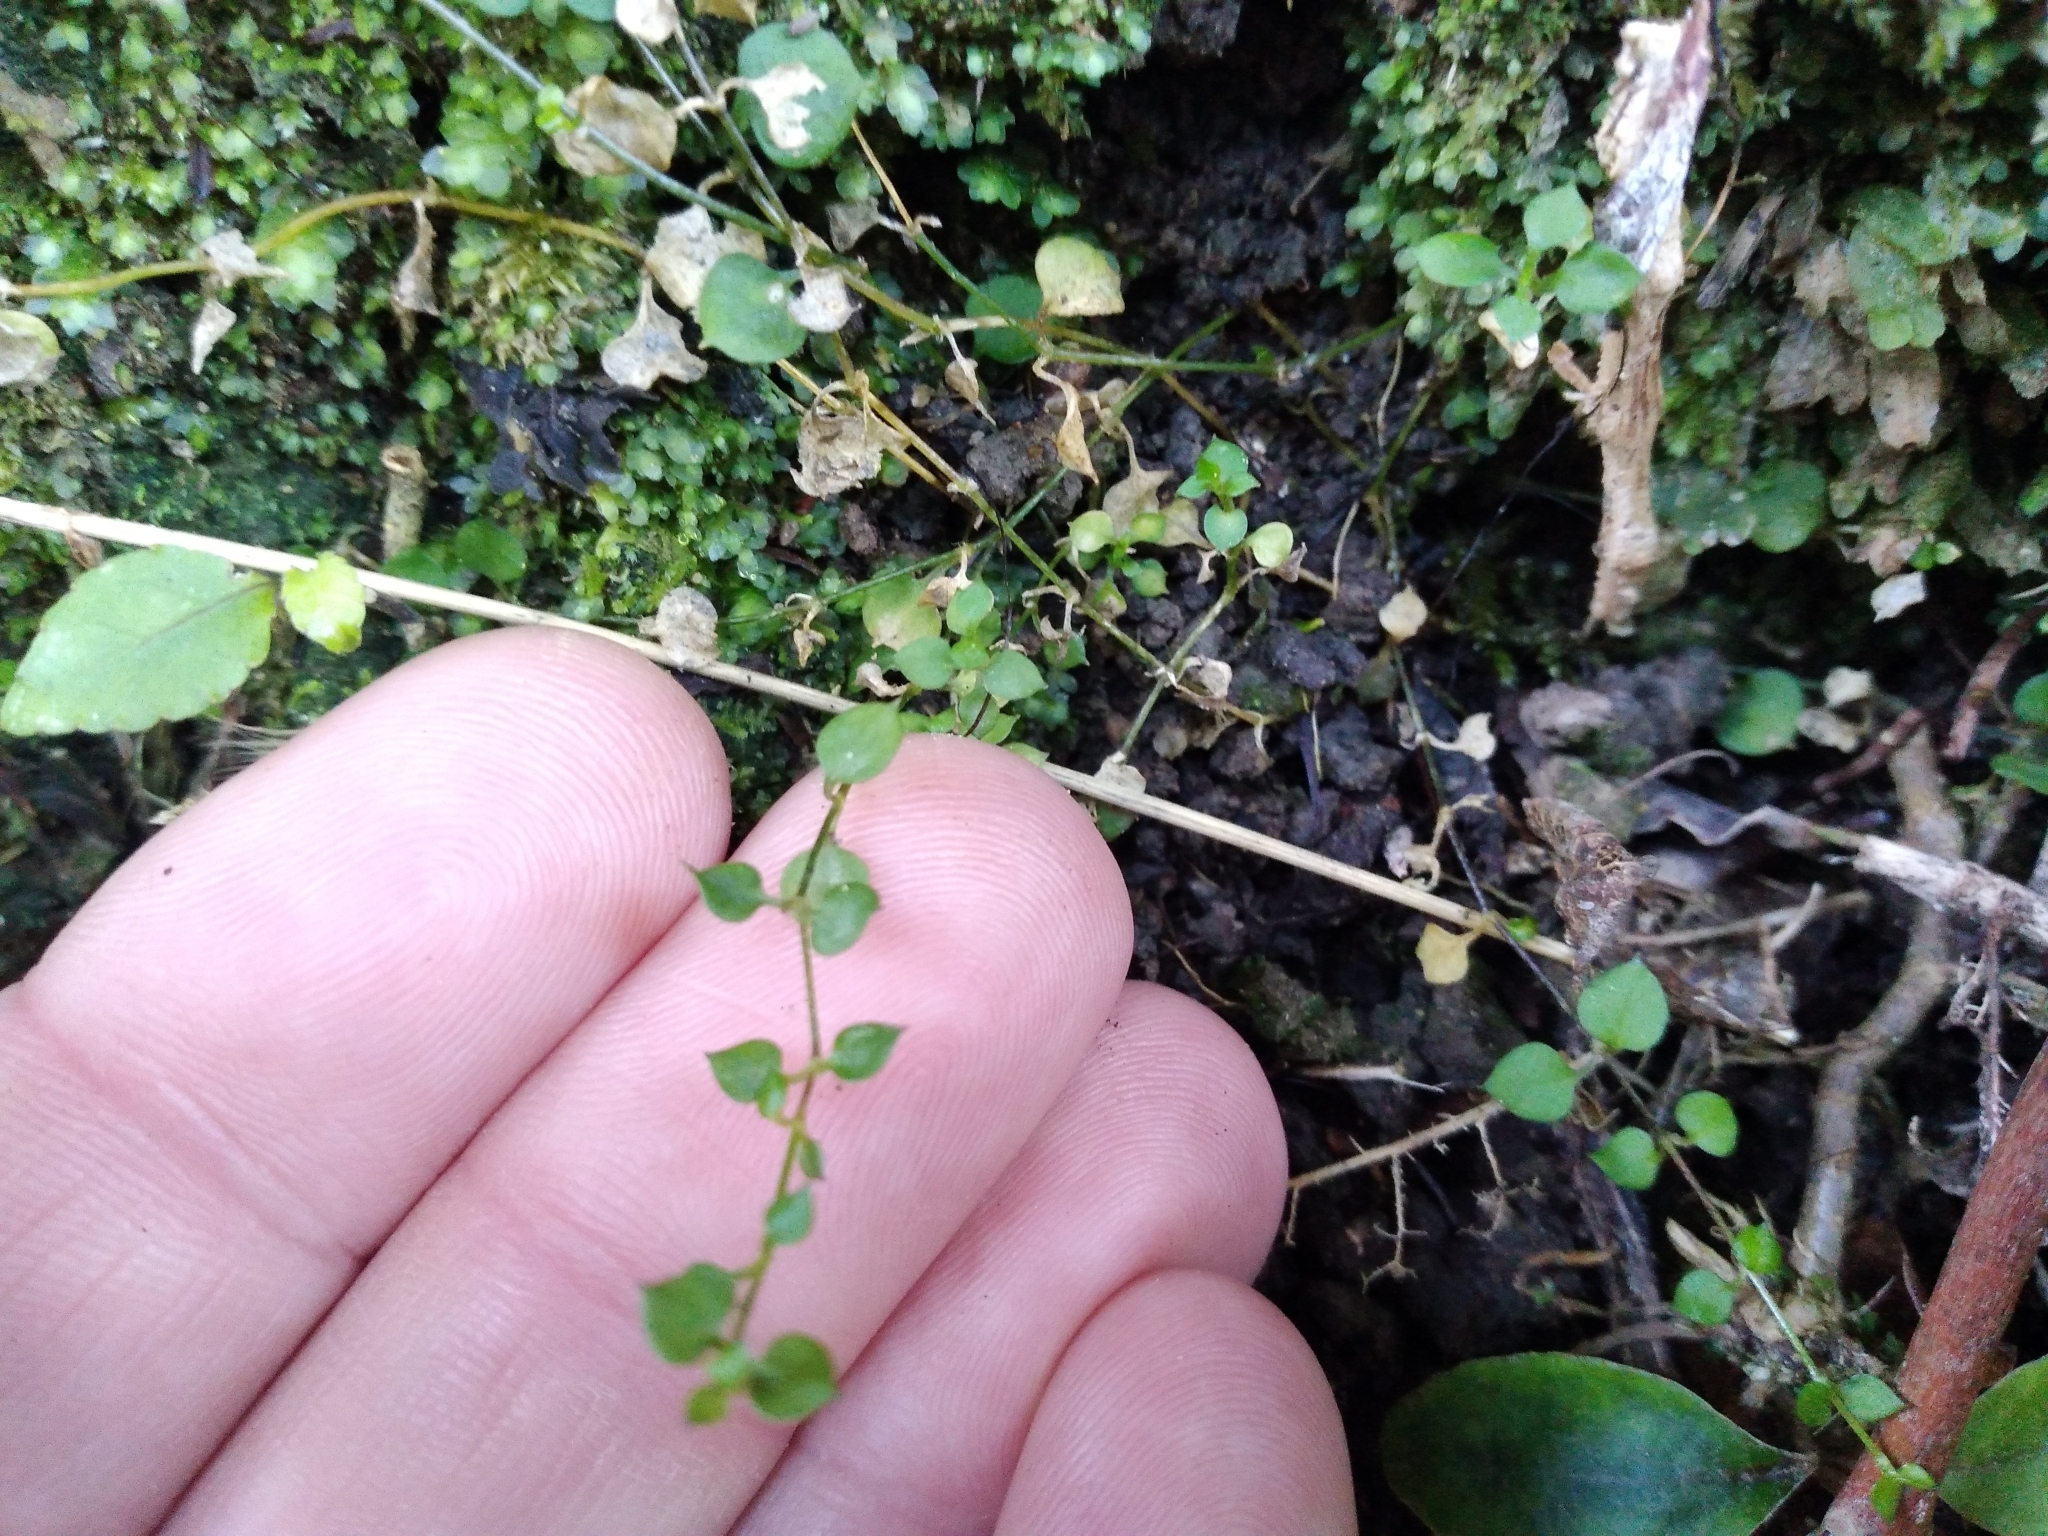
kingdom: Plantae
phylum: Tracheophyta
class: Magnoliopsida
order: Caryophyllales
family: Caryophyllaceae
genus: Stellaria
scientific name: Stellaria parviflora
